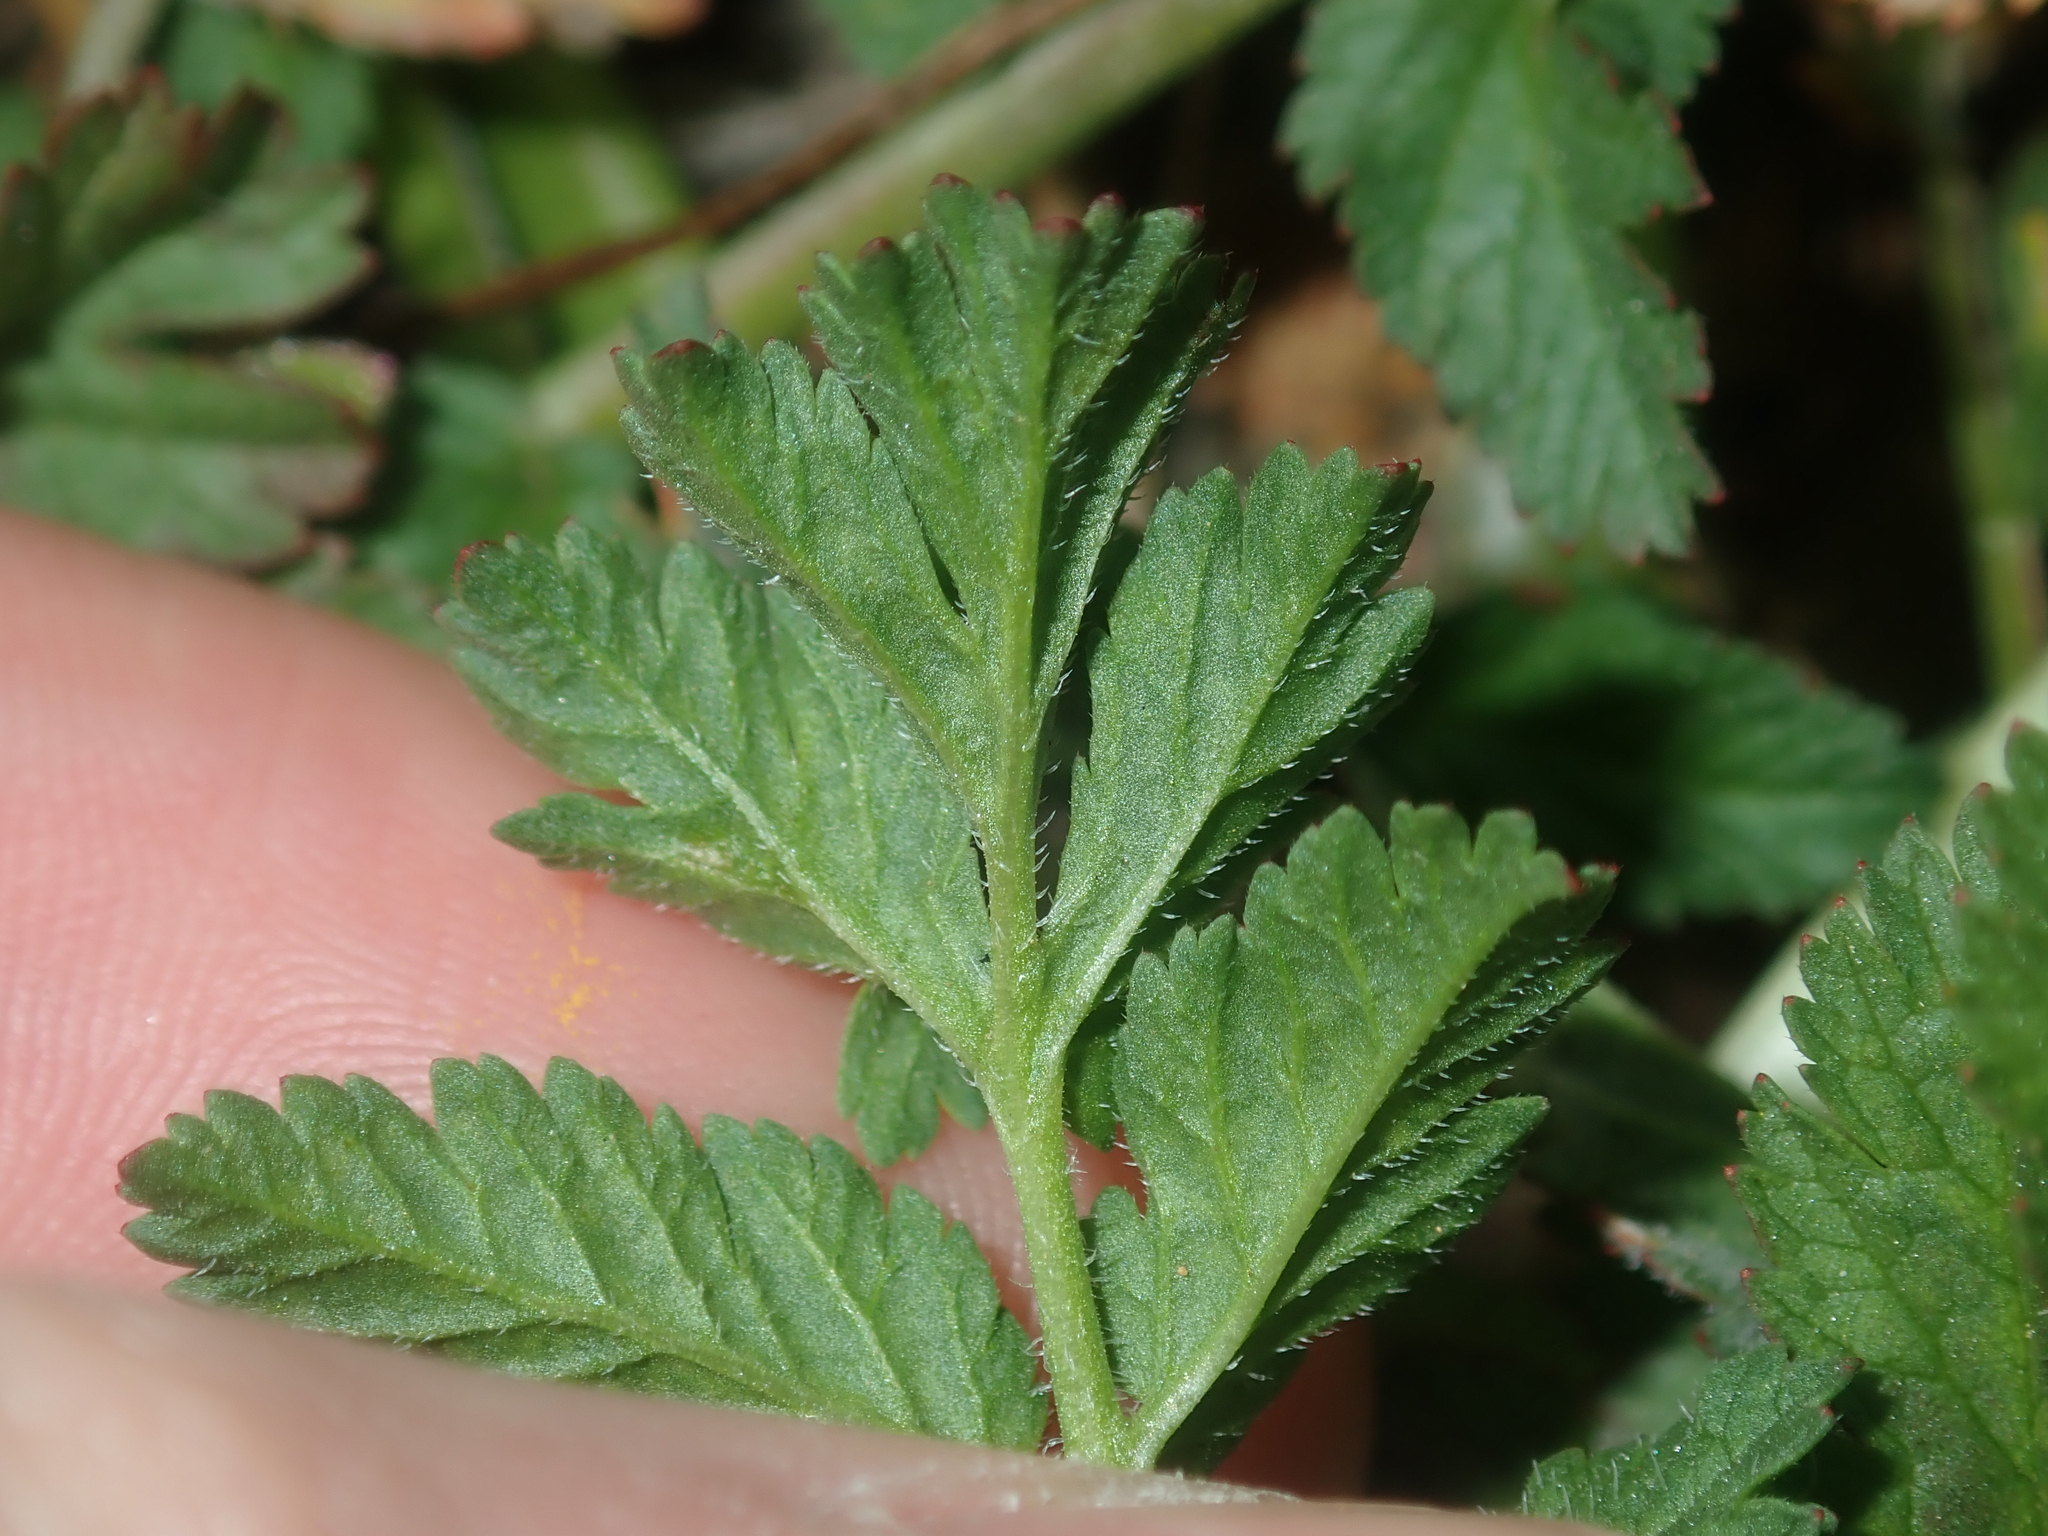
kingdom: Plantae
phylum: Tracheophyta
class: Magnoliopsida
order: Geraniales
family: Geraniaceae
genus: Erodium
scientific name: Erodium moschatum
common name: Musk stork's-bill
